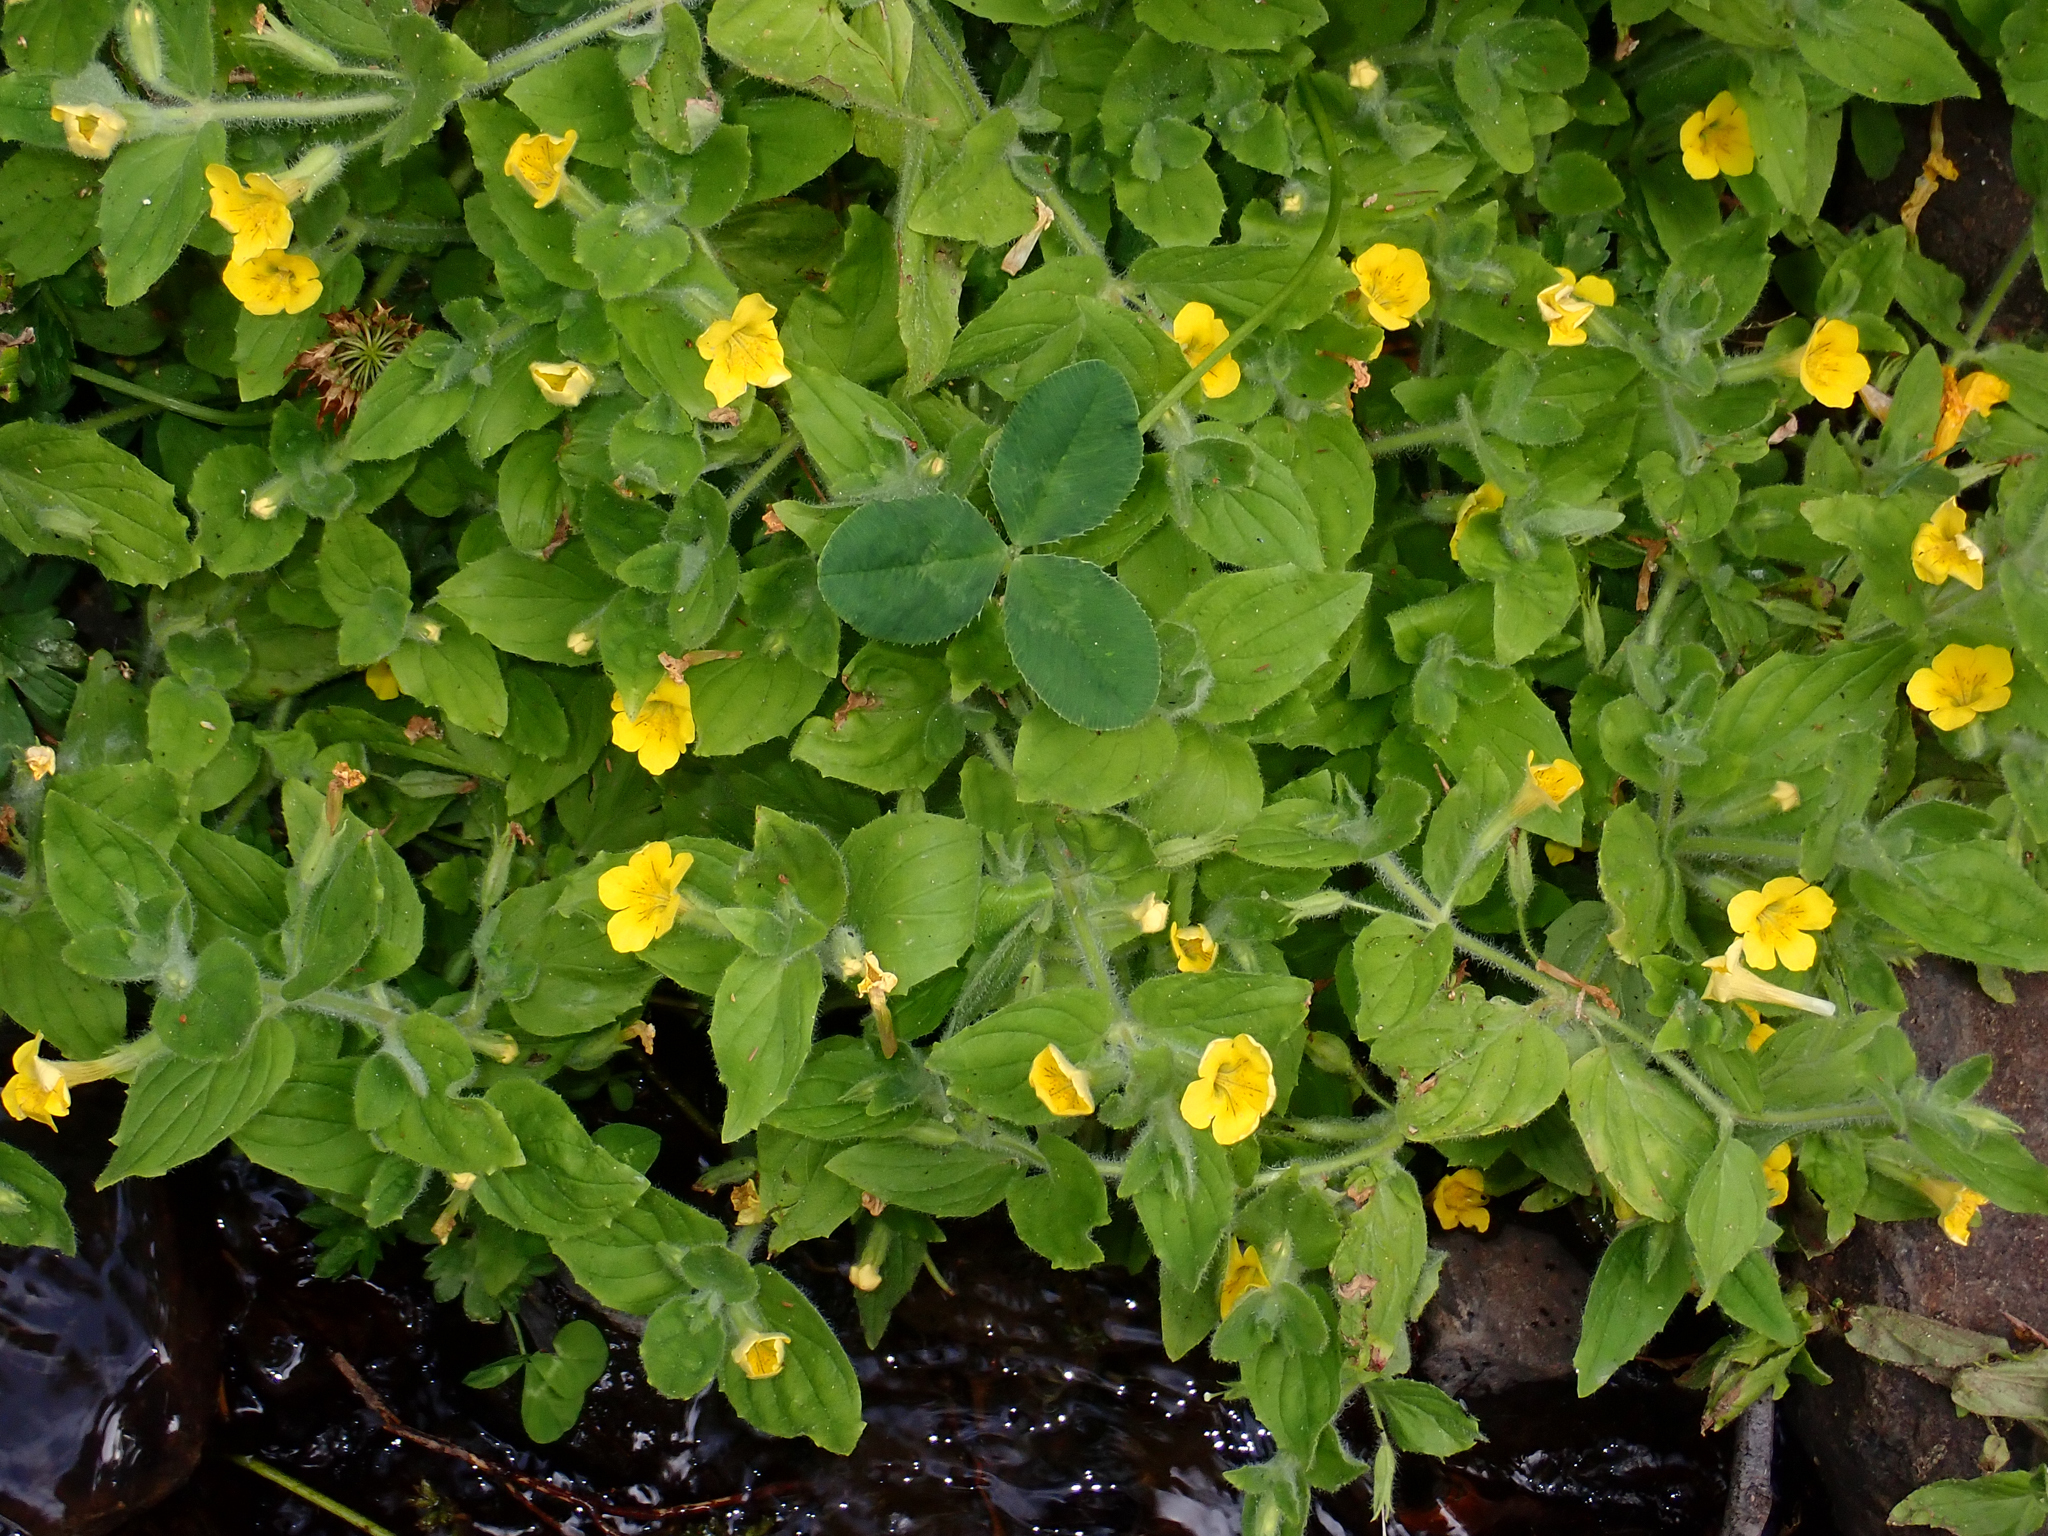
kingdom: Plantae
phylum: Tracheophyta
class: Magnoliopsida
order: Lamiales
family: Phrymaceae
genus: Erythranthe
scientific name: Erythranthe moschata
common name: Muskflower
